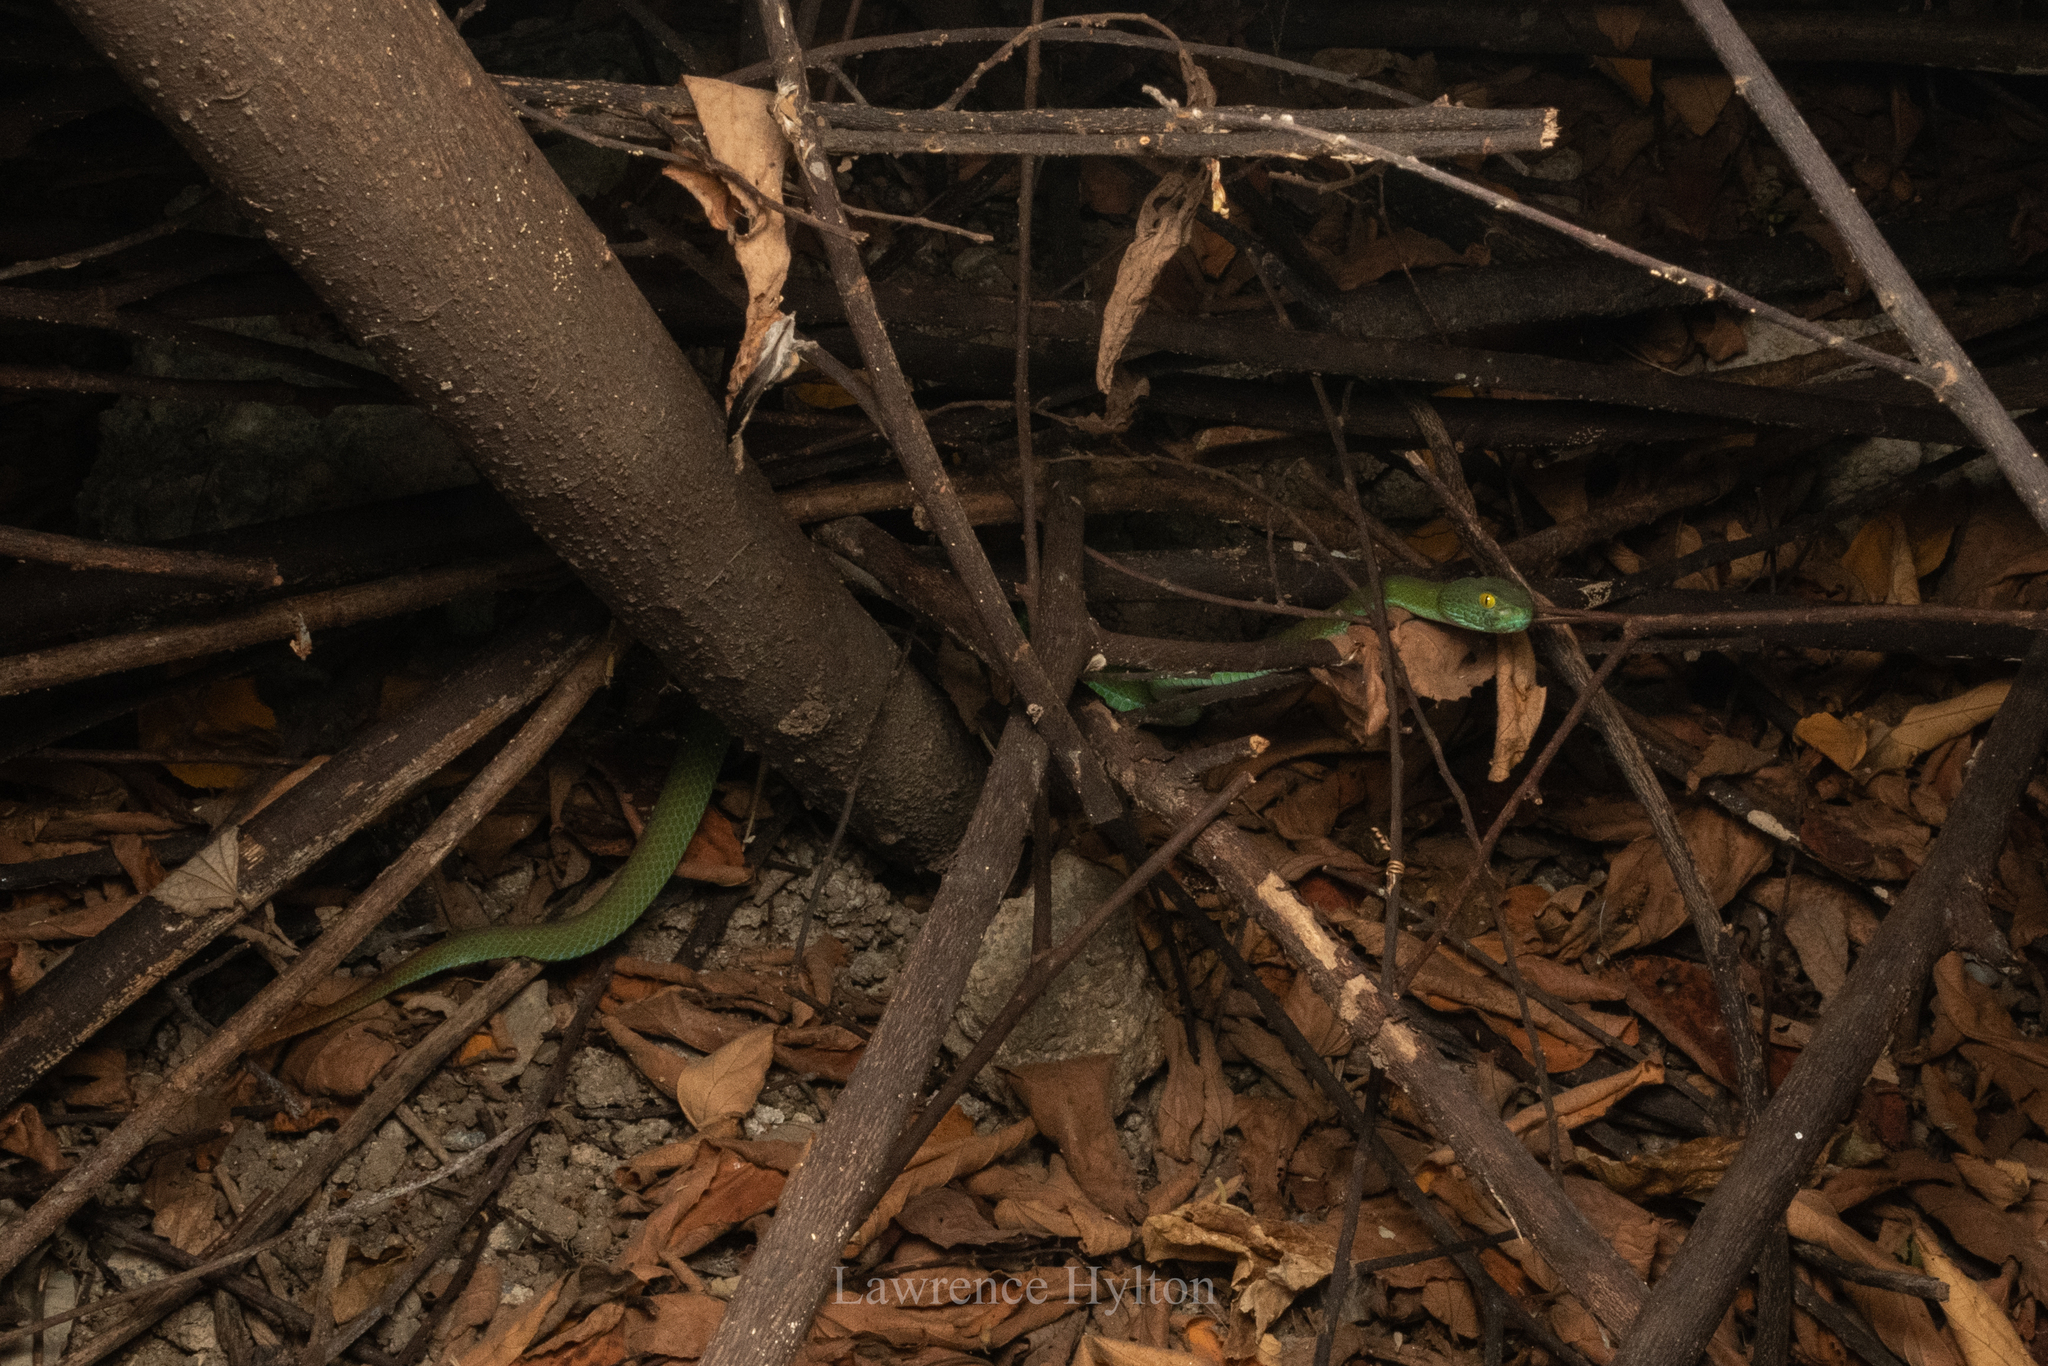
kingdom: Animalia
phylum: Chordata
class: Squamata
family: Viperidae
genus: Trimeresurus
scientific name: Trimeresurus macrops
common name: Kramer's pit viper
